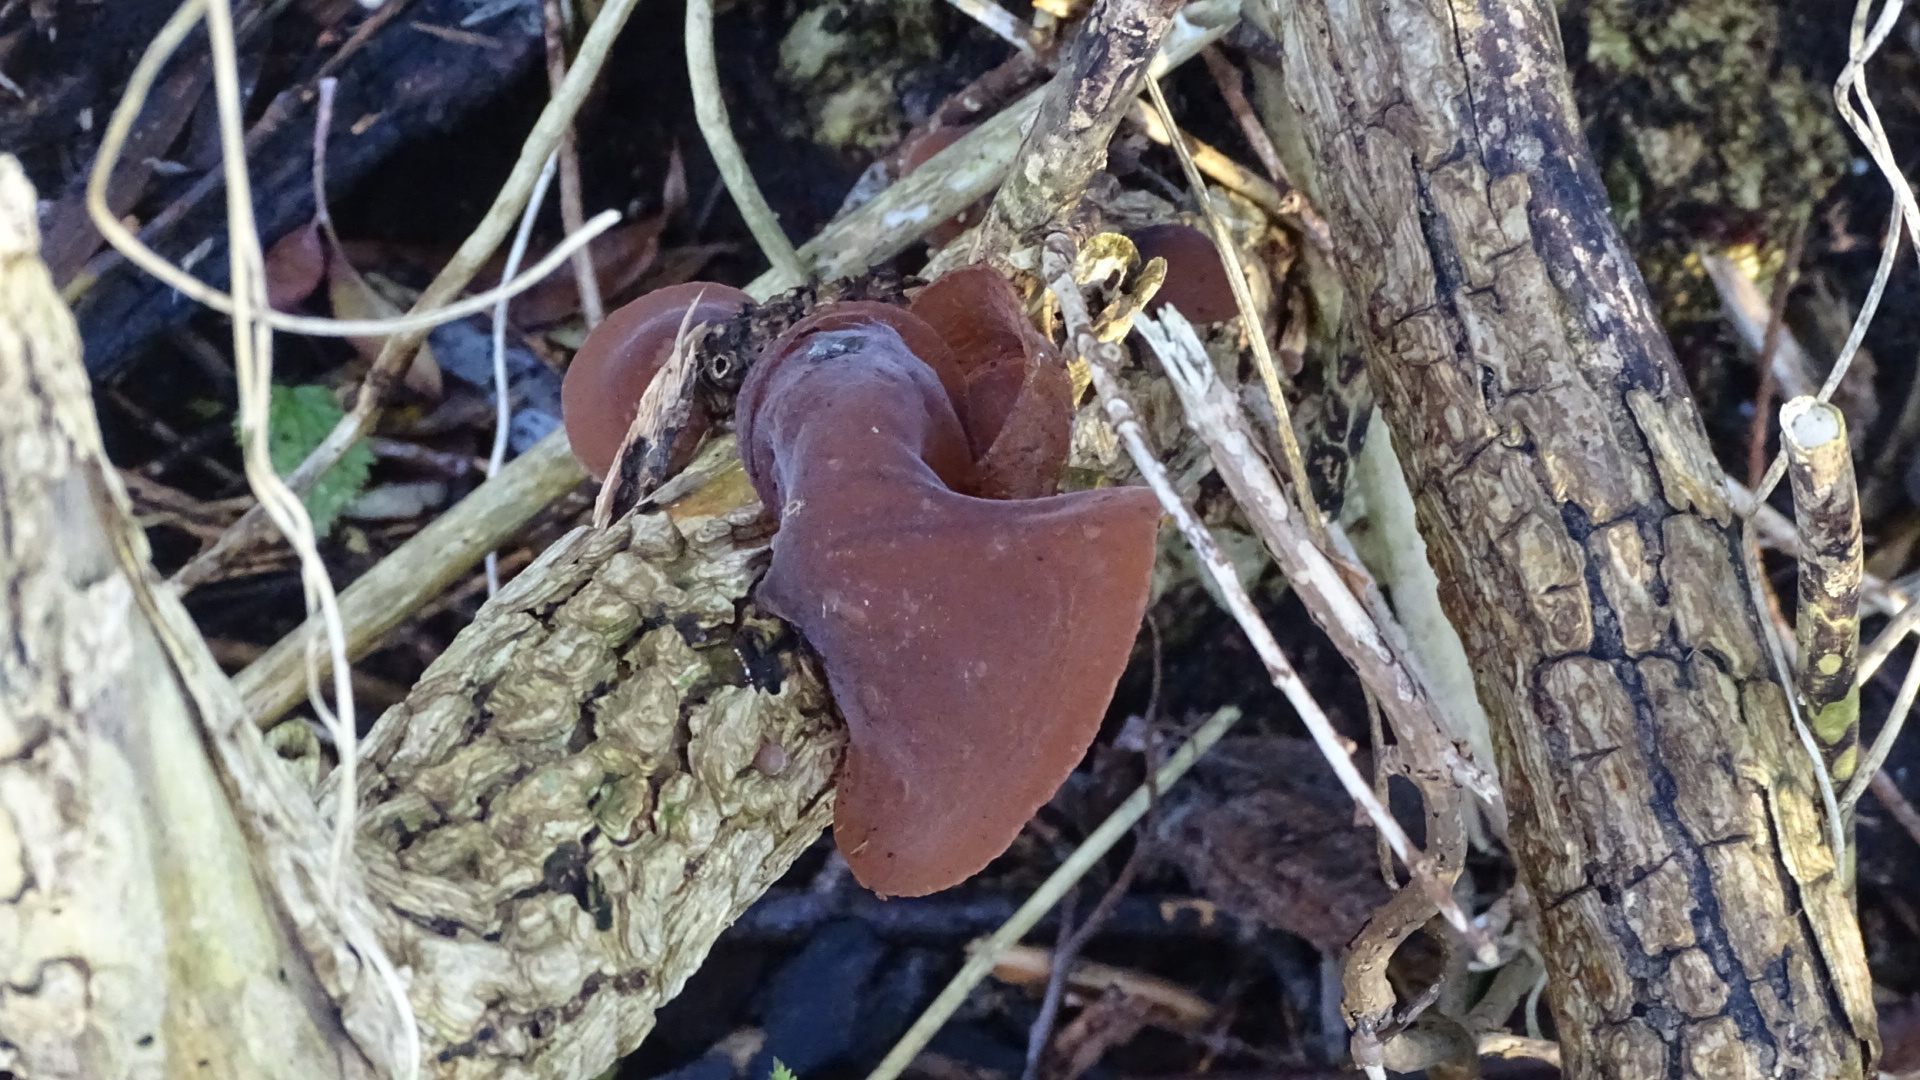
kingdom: Fungi
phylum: Basidiomycota
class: Agaricomycetes
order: Auriculariales
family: Auriculariaceae
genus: Auricularia
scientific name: Auricularia auricula-judae
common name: Jelly ear
